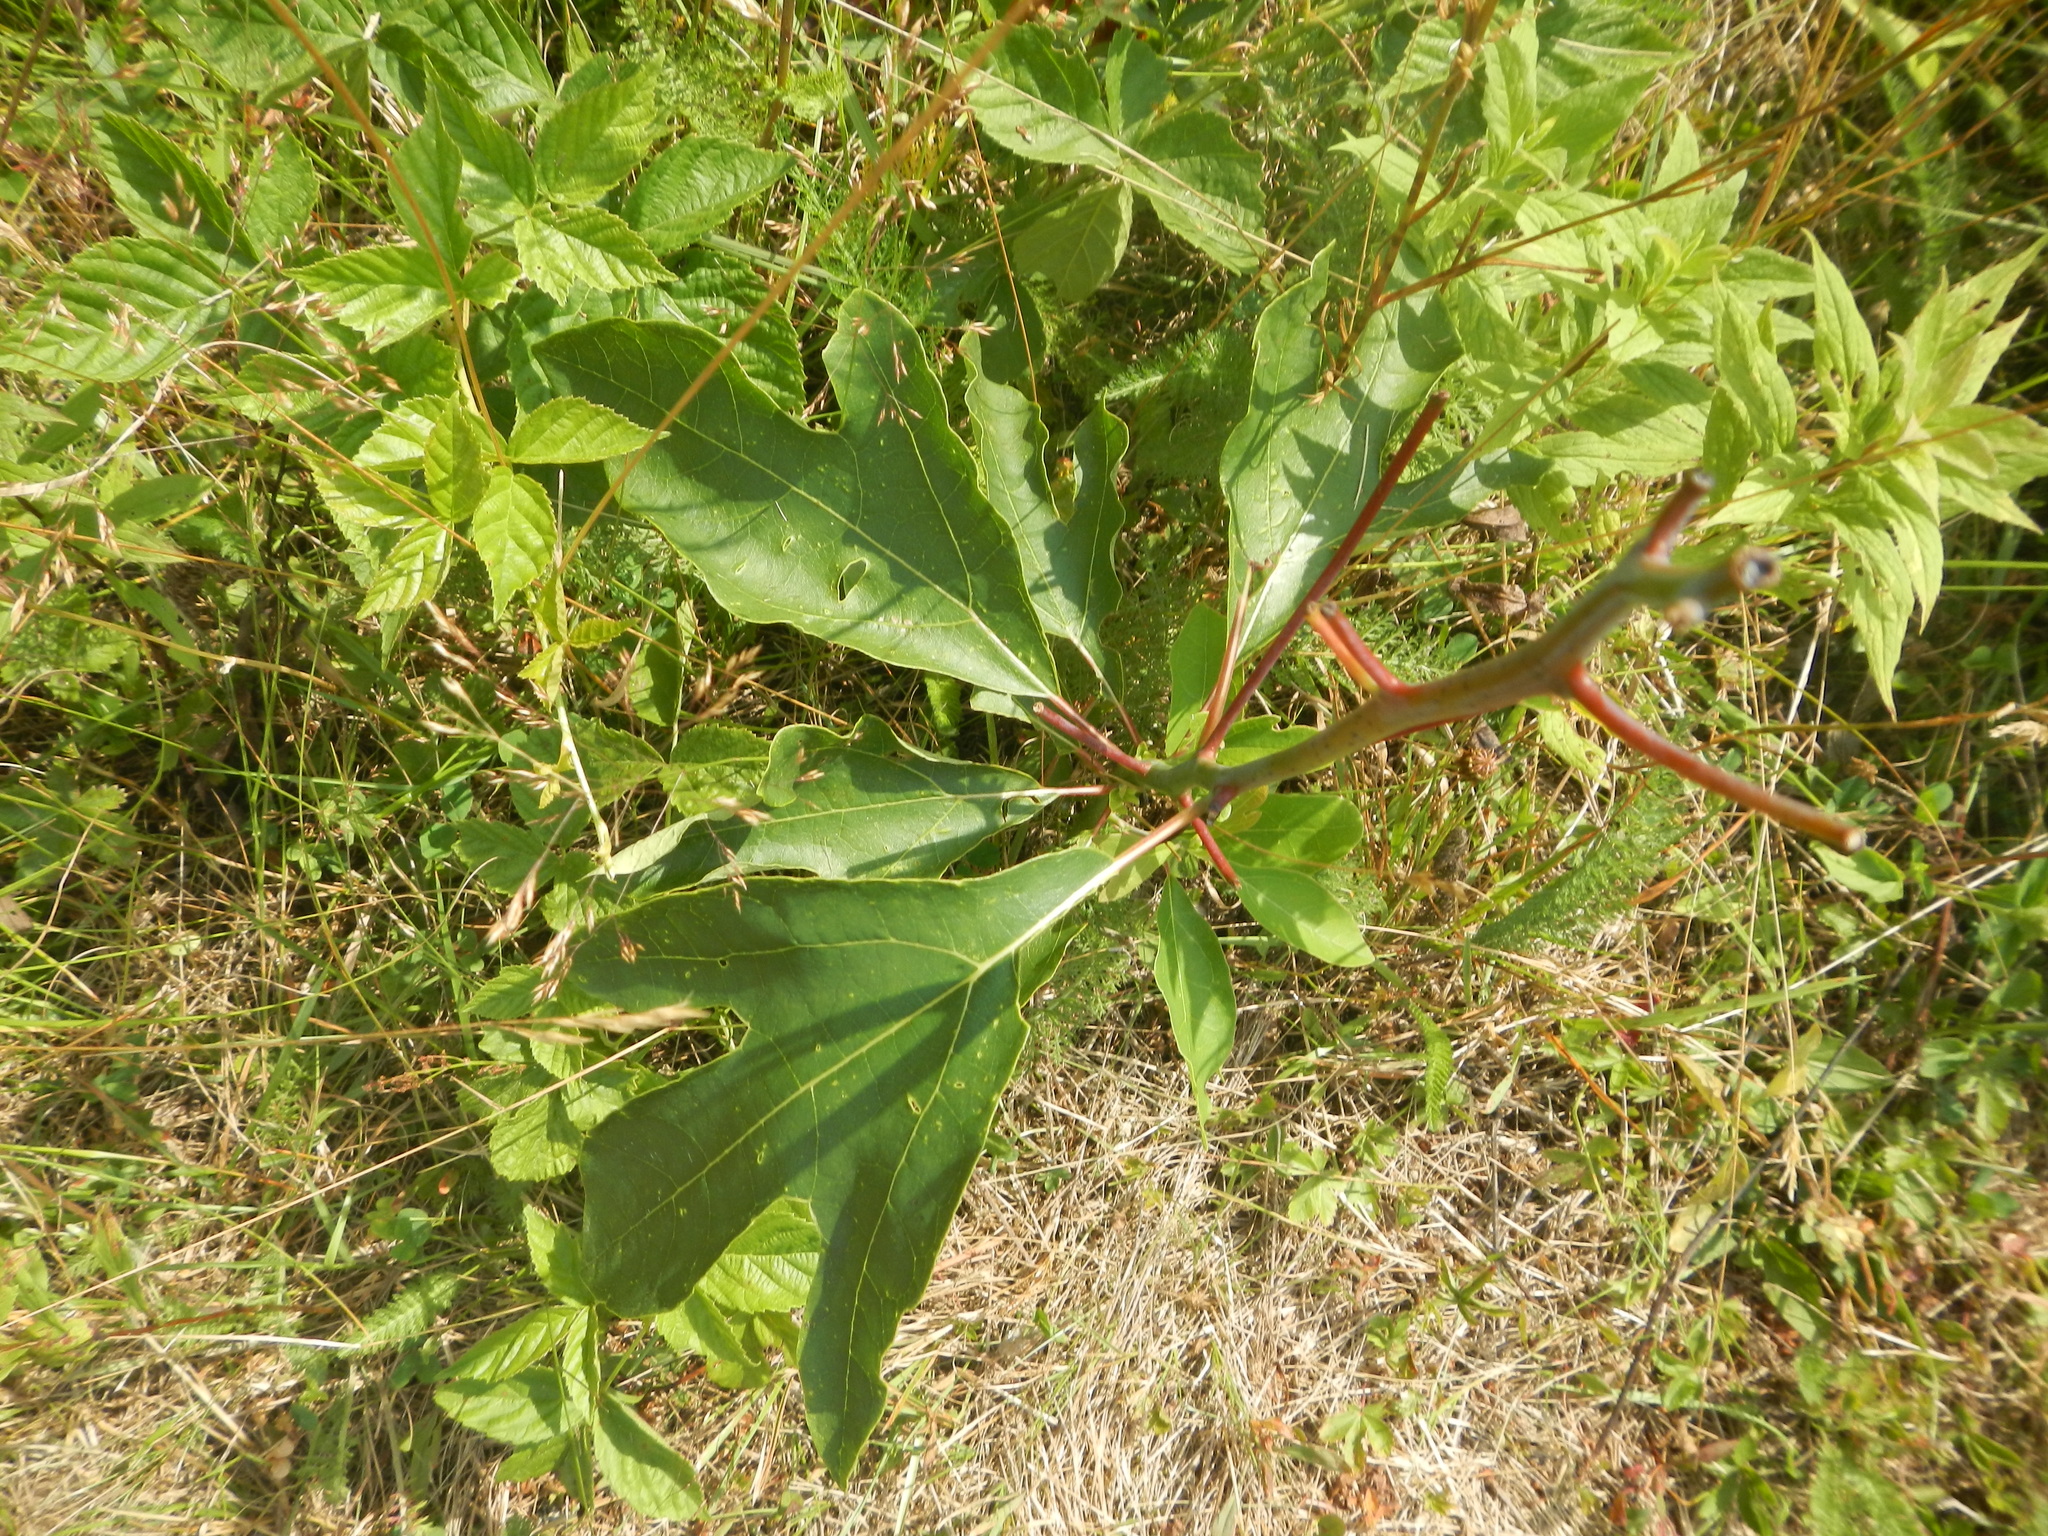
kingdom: Plantae
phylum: Tracheophyta
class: Magnoliopsida
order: Laurales
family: Lauraceae
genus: Sassafras
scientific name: Sassafras albidum
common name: Sassafras
